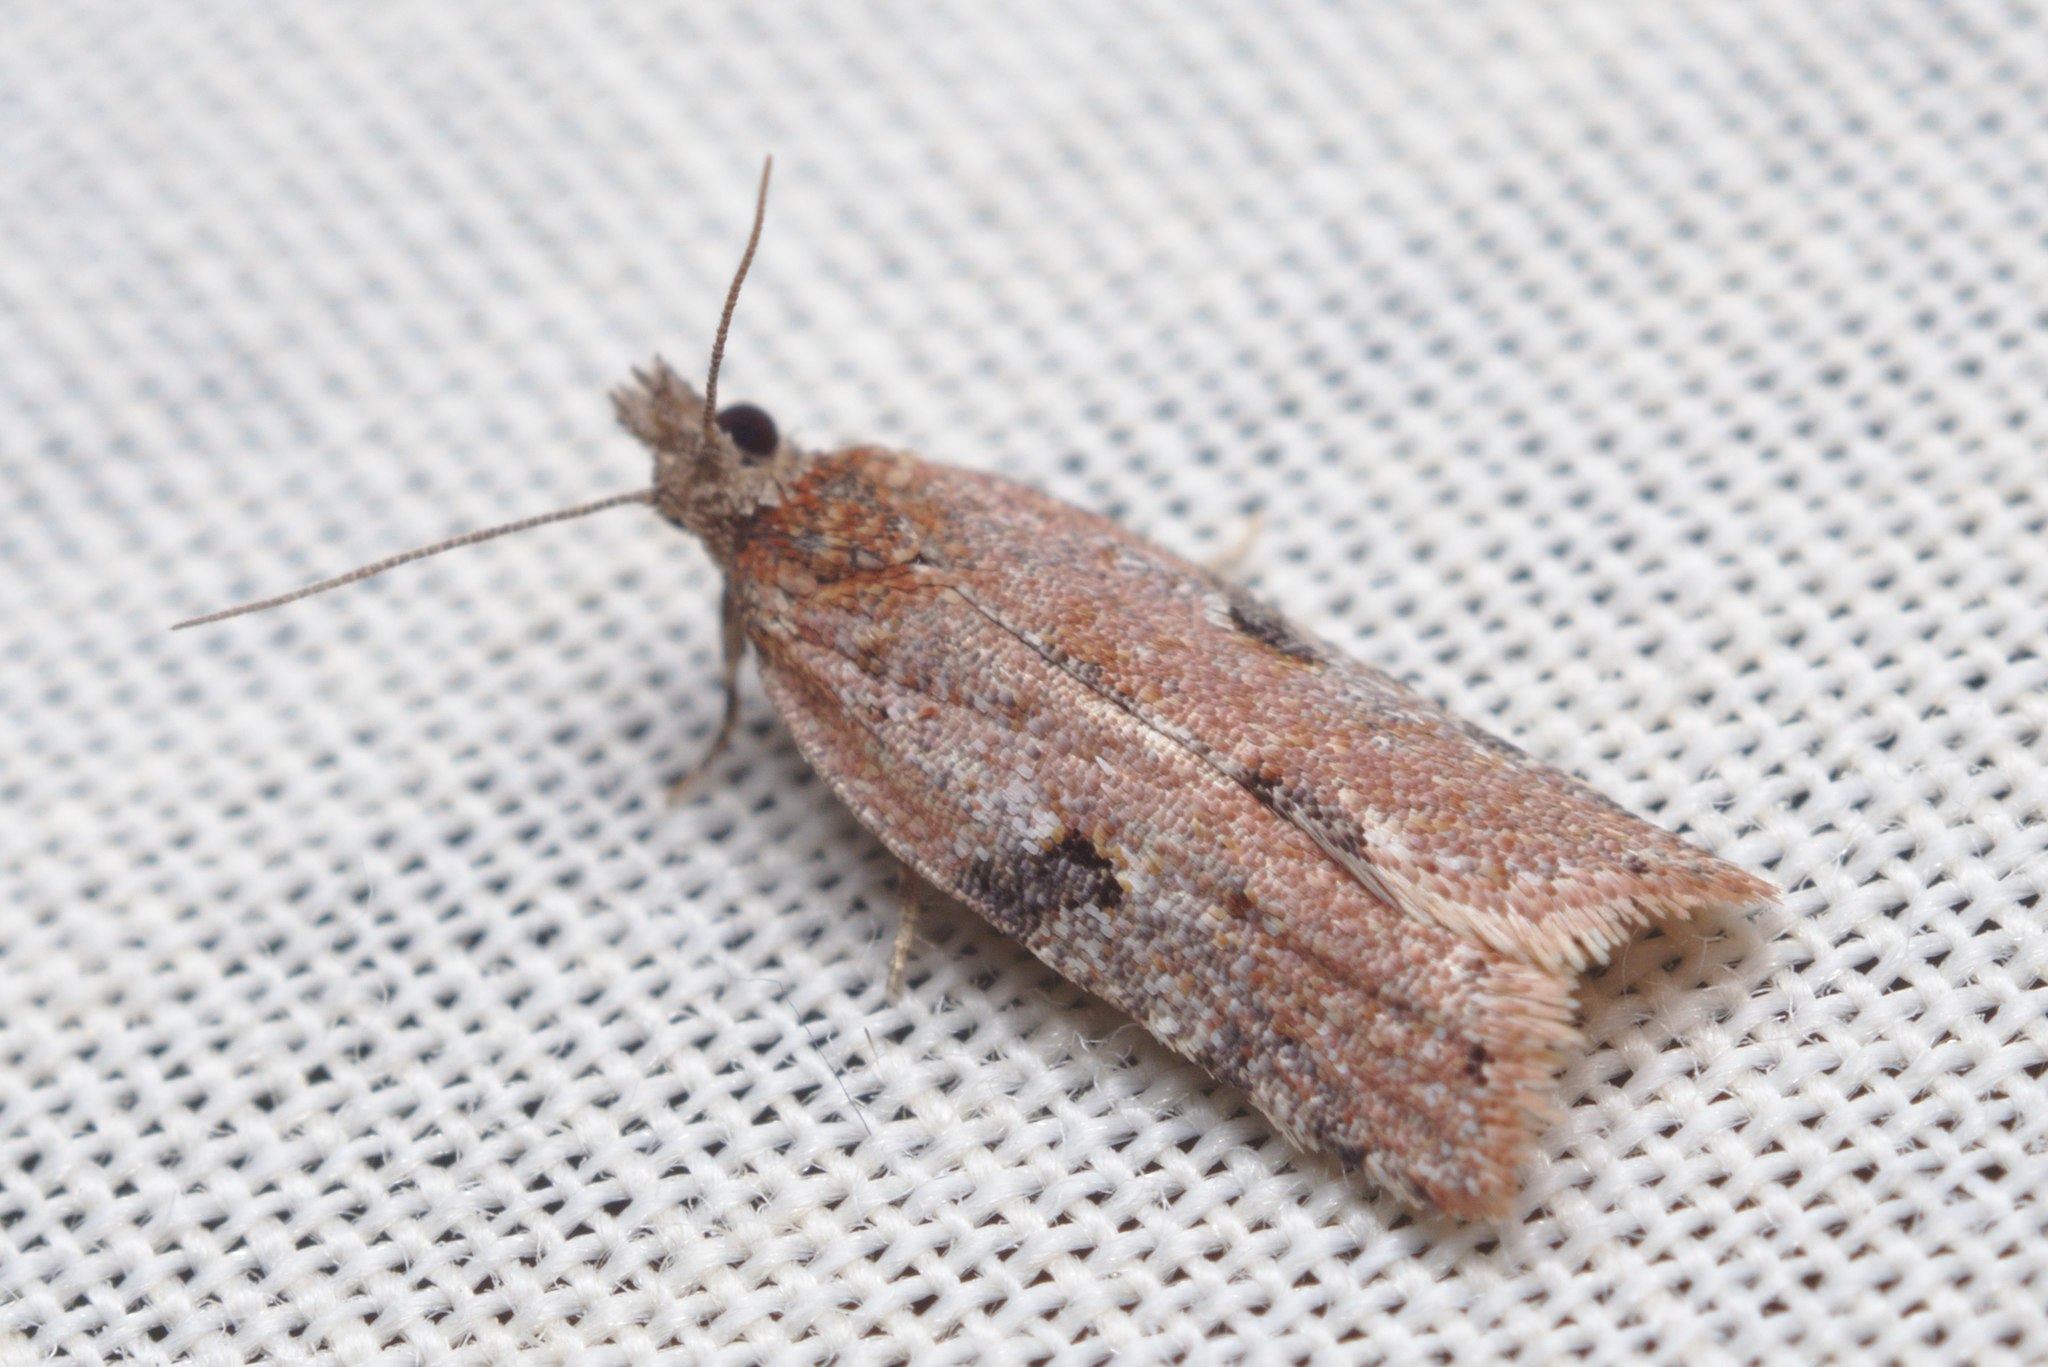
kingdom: Animalia
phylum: Arthropoda
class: Insecta
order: Lepidoptera
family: Tortricidae
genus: Capua
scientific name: Capua semiferana
